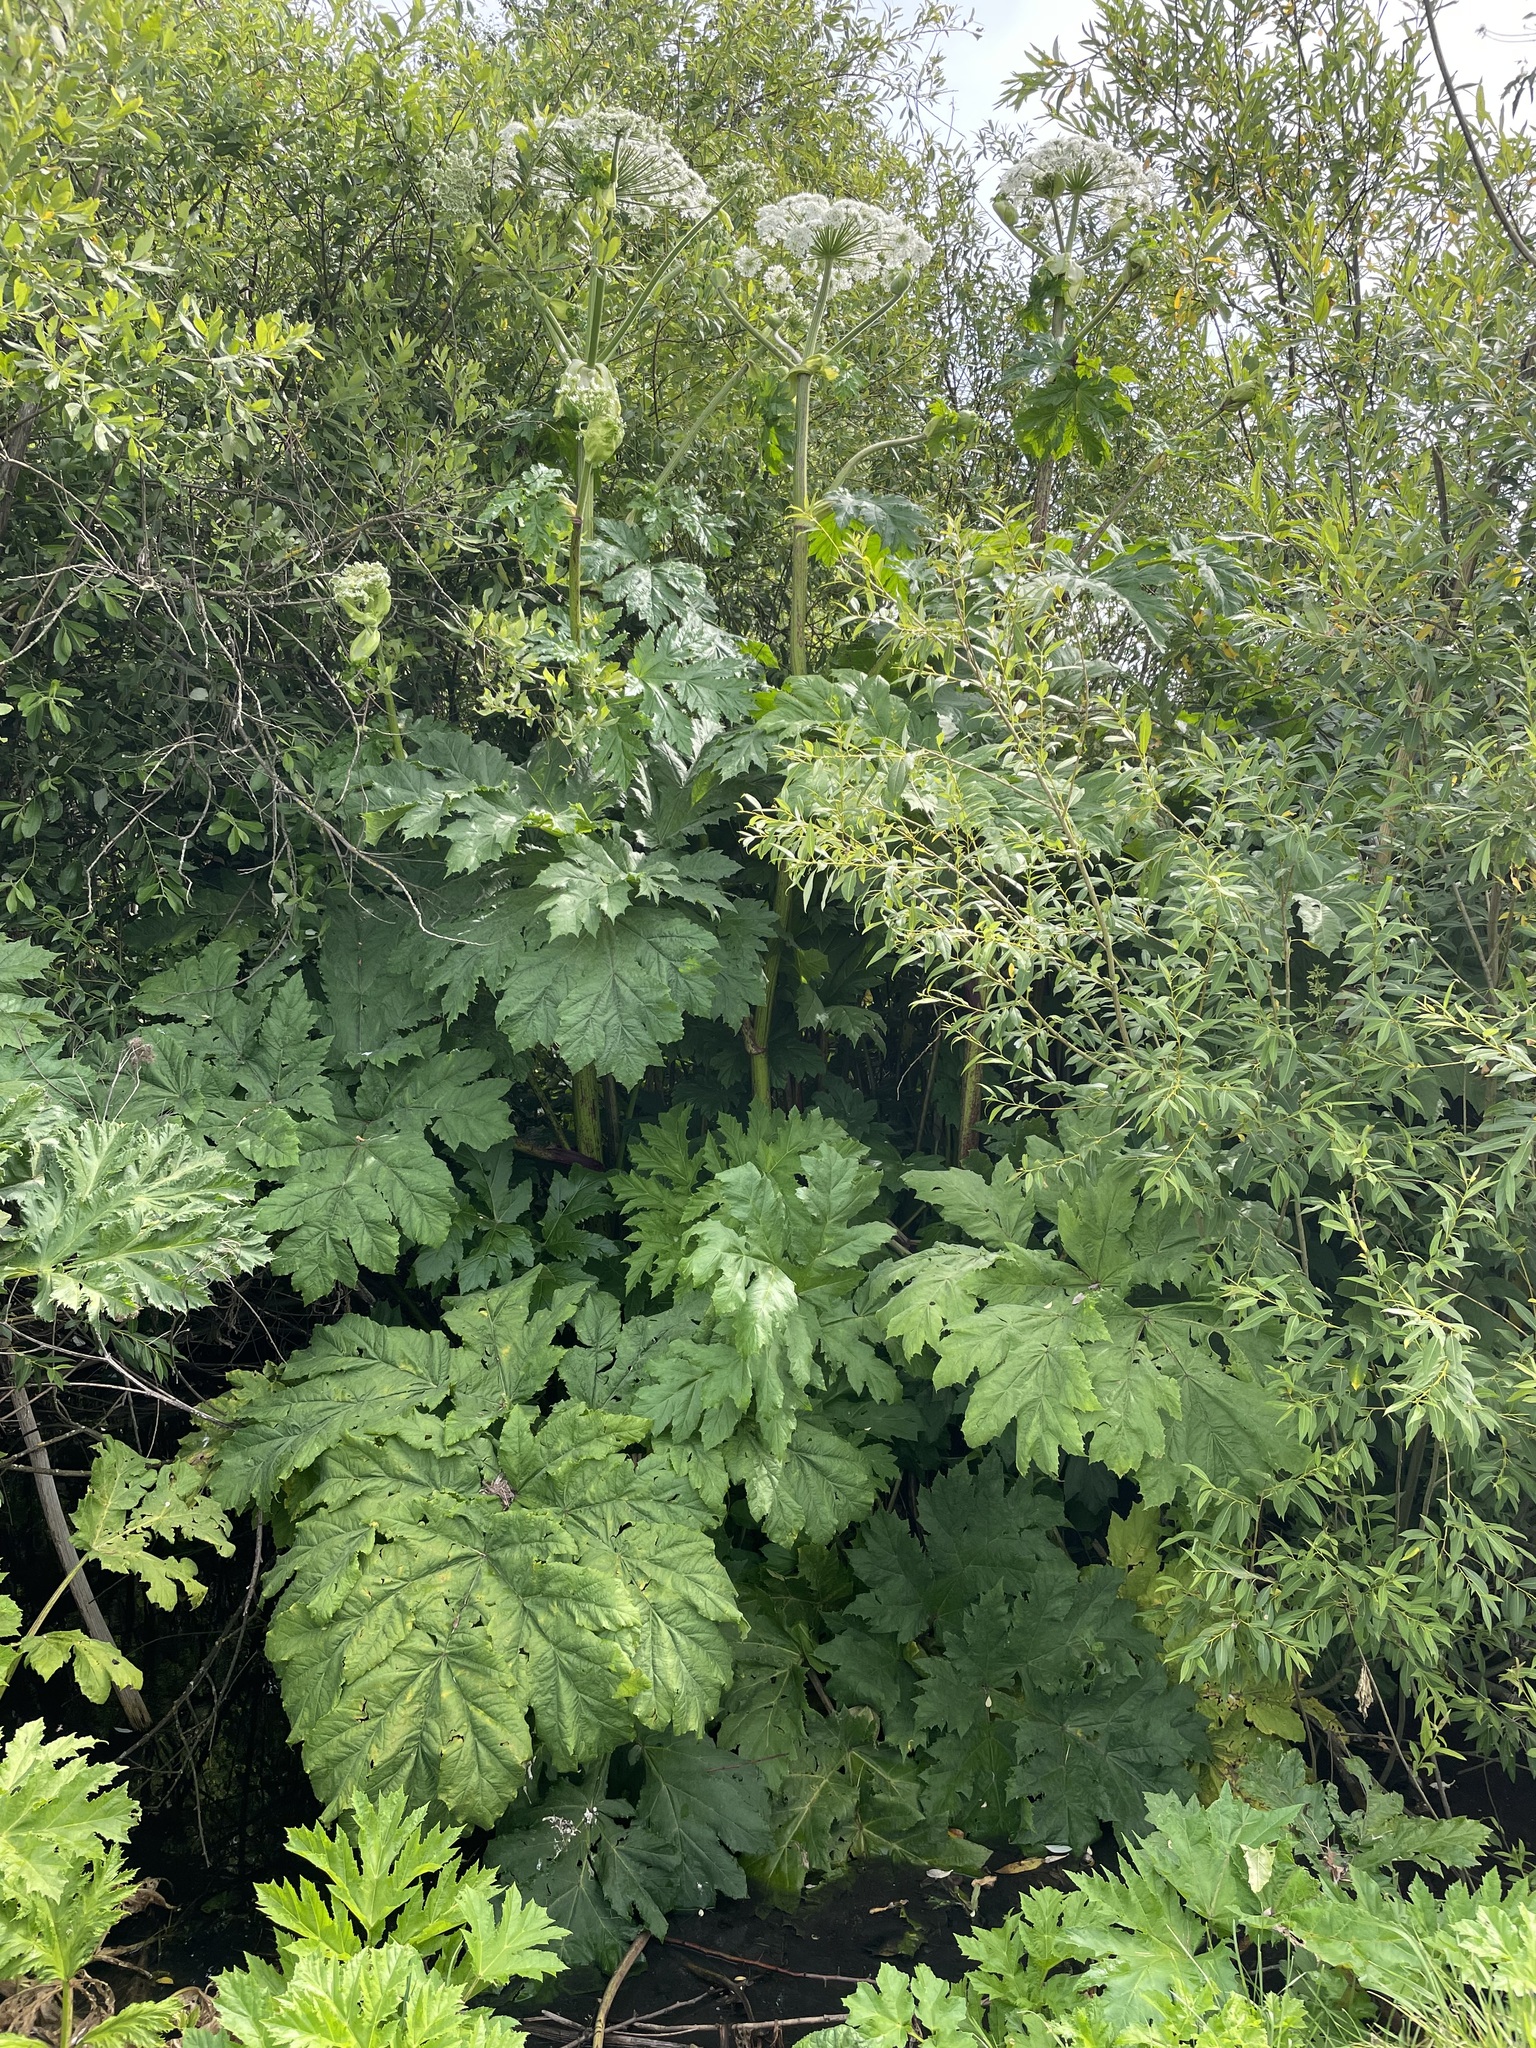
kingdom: Plantae
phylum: Tracheophyta
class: Magnoliopsida
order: Apiales
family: Apiaceae
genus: Heracleum
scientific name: Heracleum sosnowskyi
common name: Sosnowsky's hogweed
